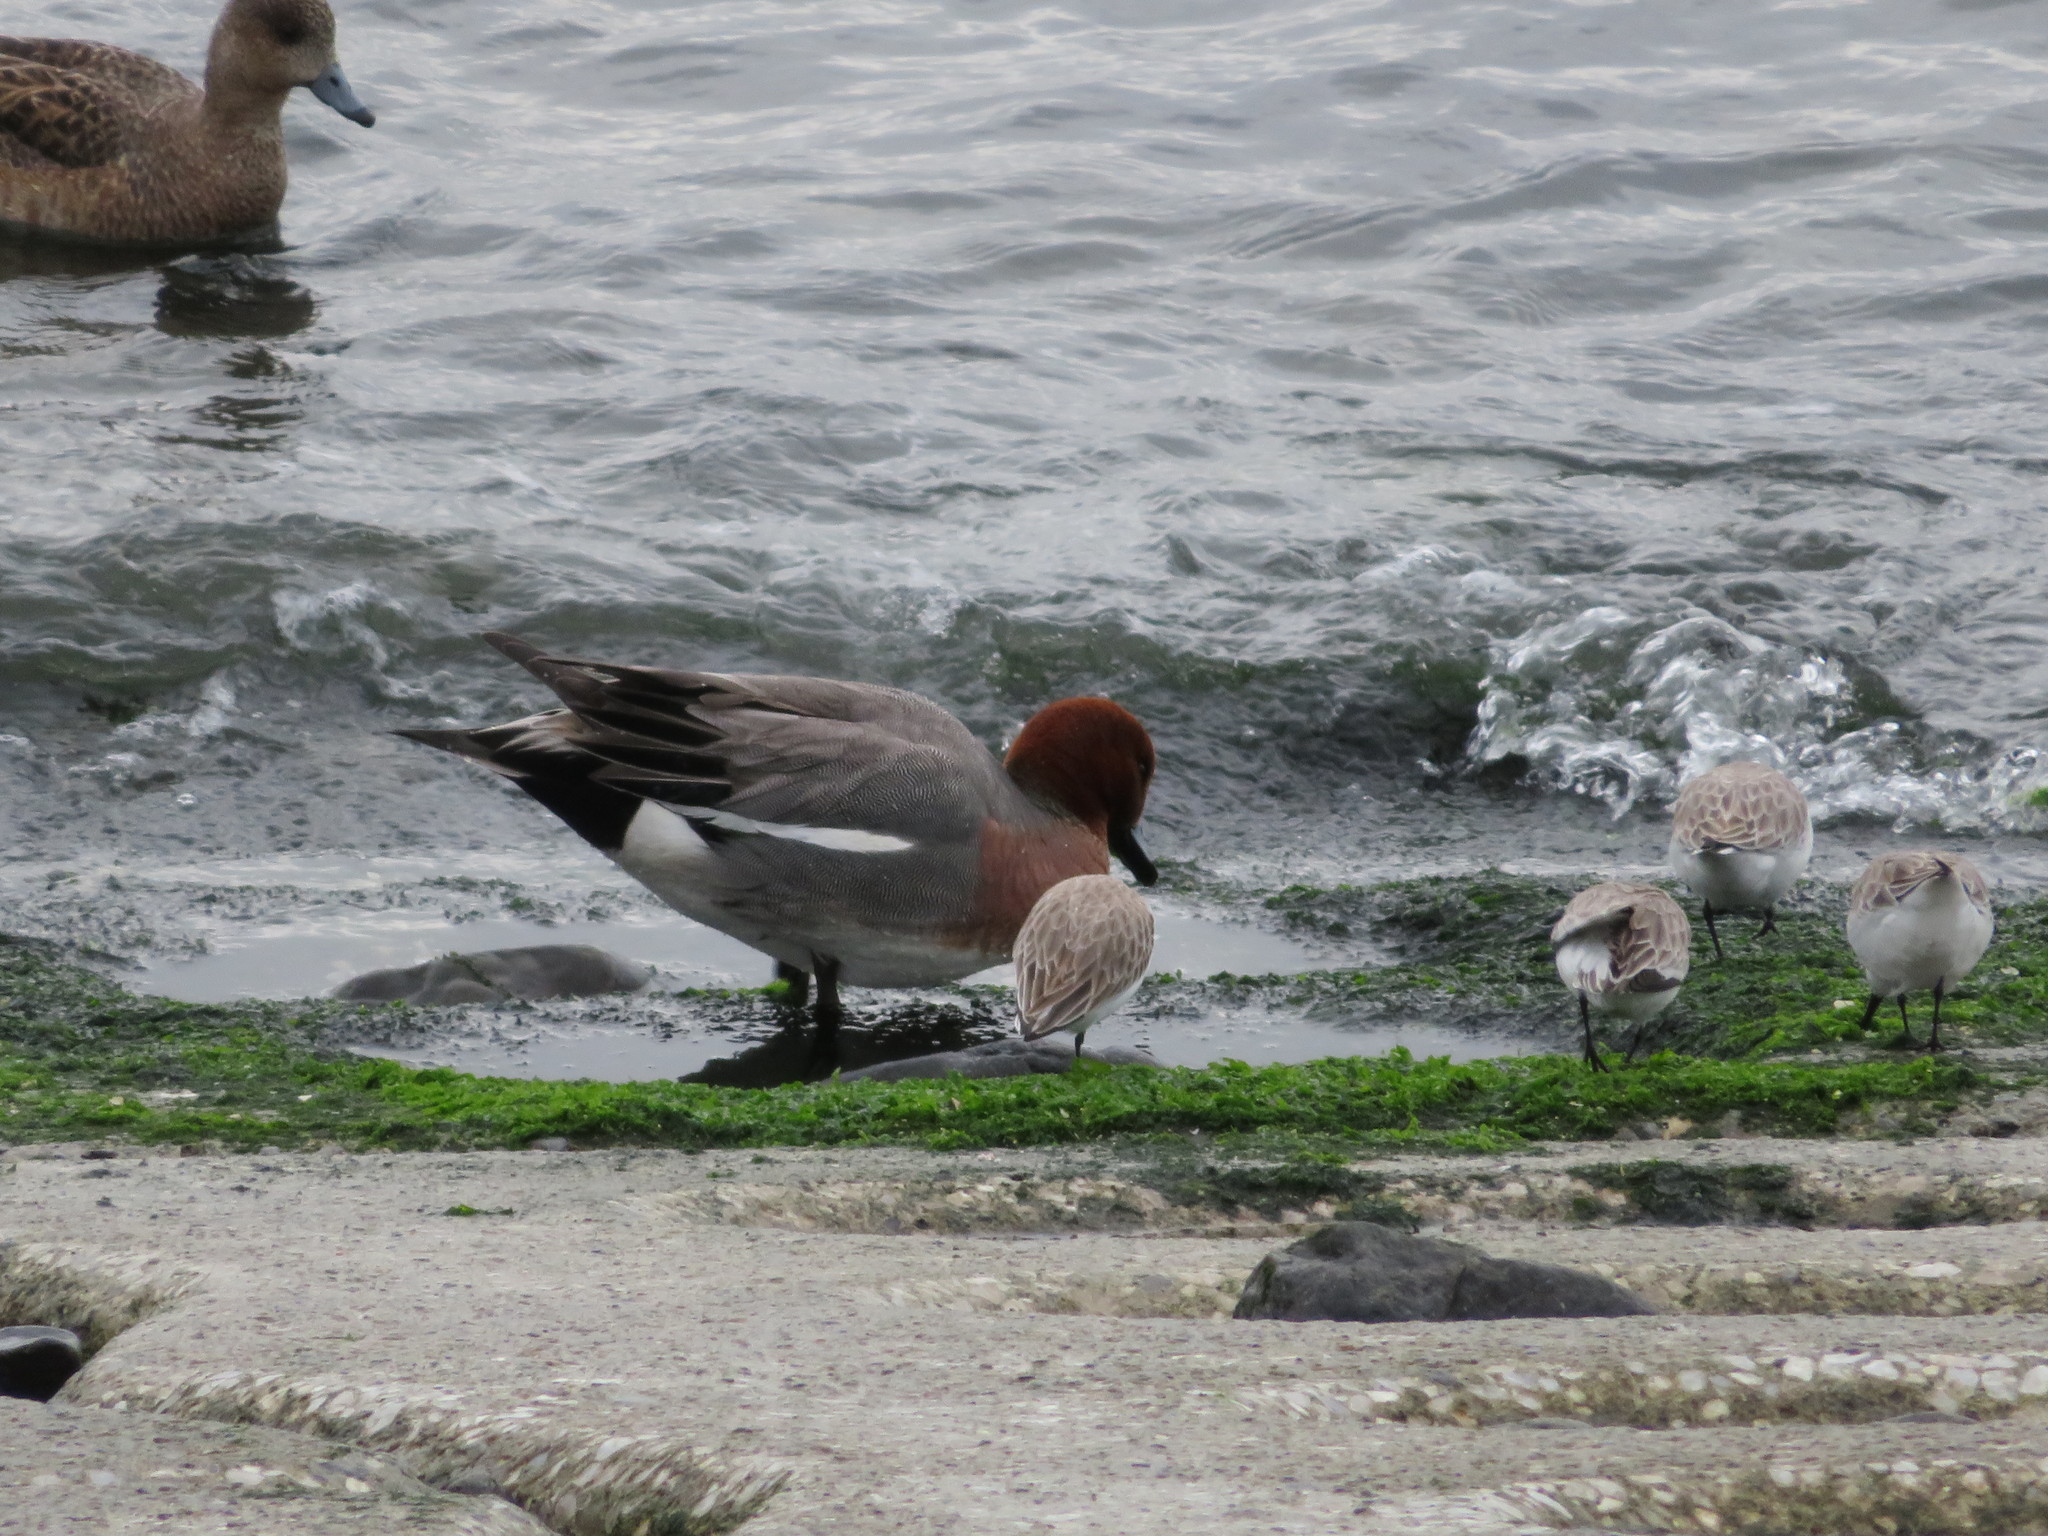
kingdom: Animalia
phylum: Chordata
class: Aves
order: Charadriiformes
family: Scolopacidae
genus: Calidris
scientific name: Calidris alba
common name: Sanderling
